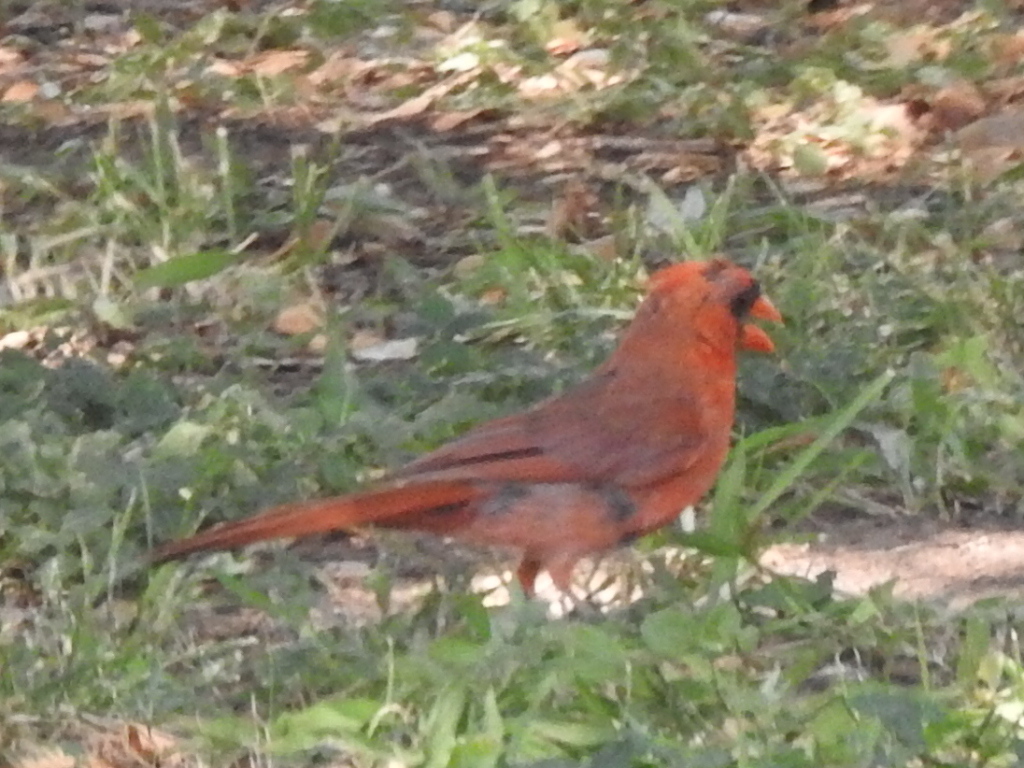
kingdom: Animalia
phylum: Chordata
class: Aves
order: Passeriformes
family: Cardinalidae
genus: Cardinalis
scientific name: Cardinalis cardinalis
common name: Northern cardinal
